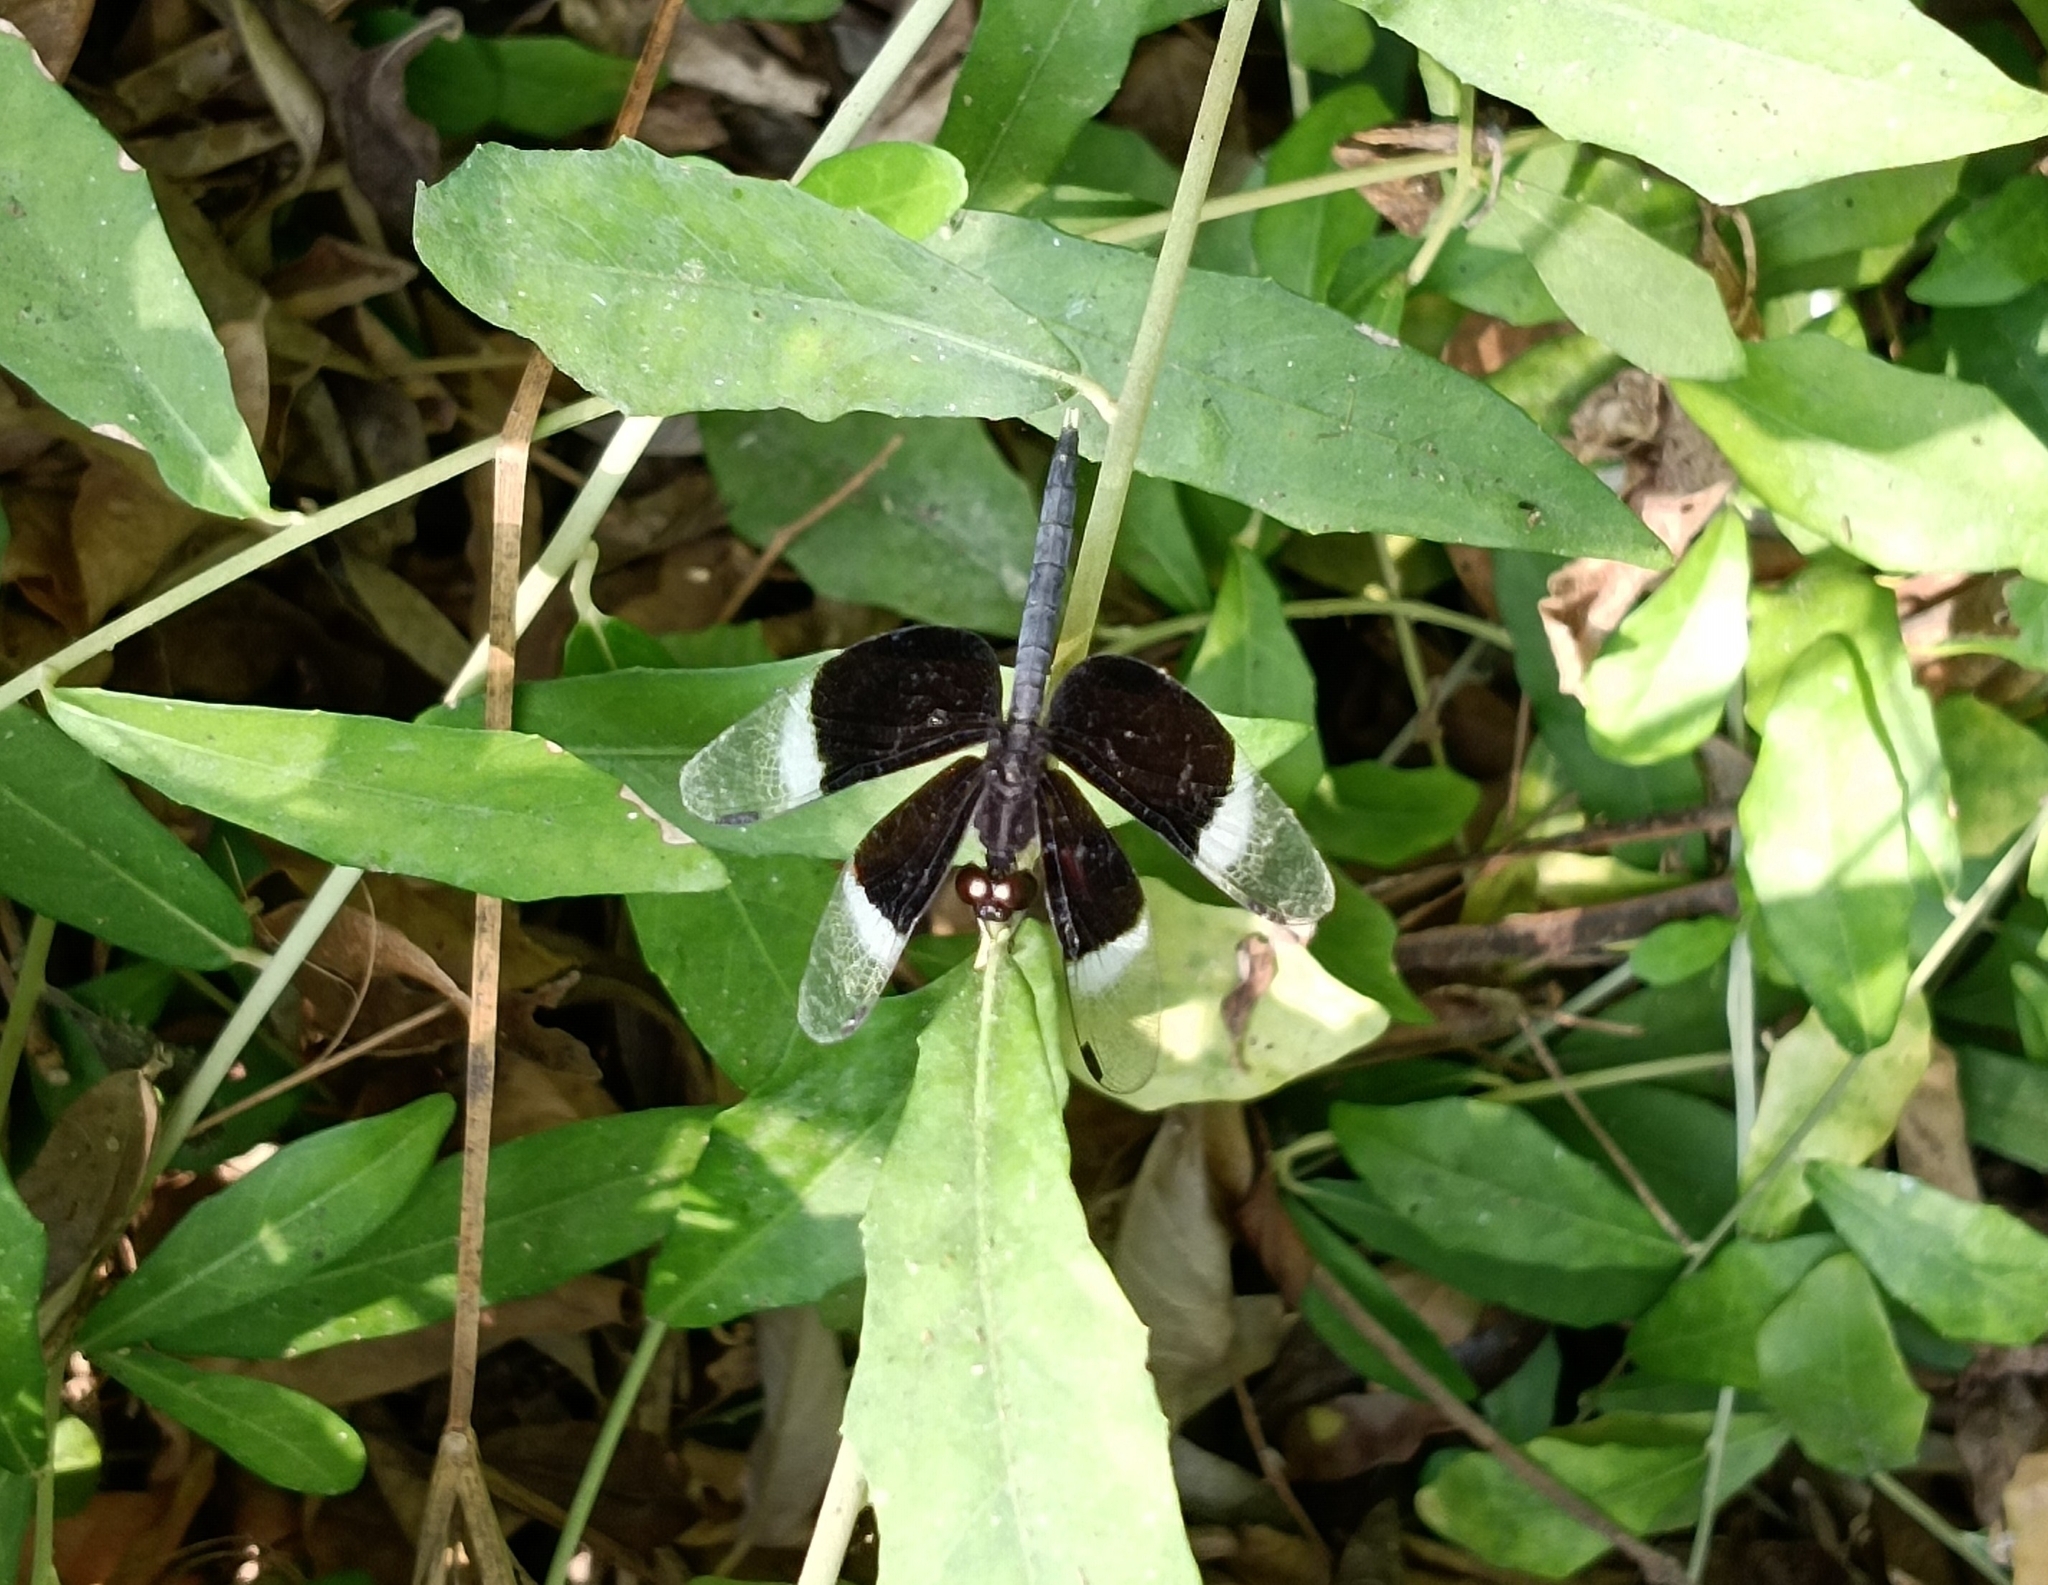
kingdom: Animalia
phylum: Arthropoda
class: Insecta
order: Odonata
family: Libellulidae
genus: Neurothemis
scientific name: Neurothemis tullia
